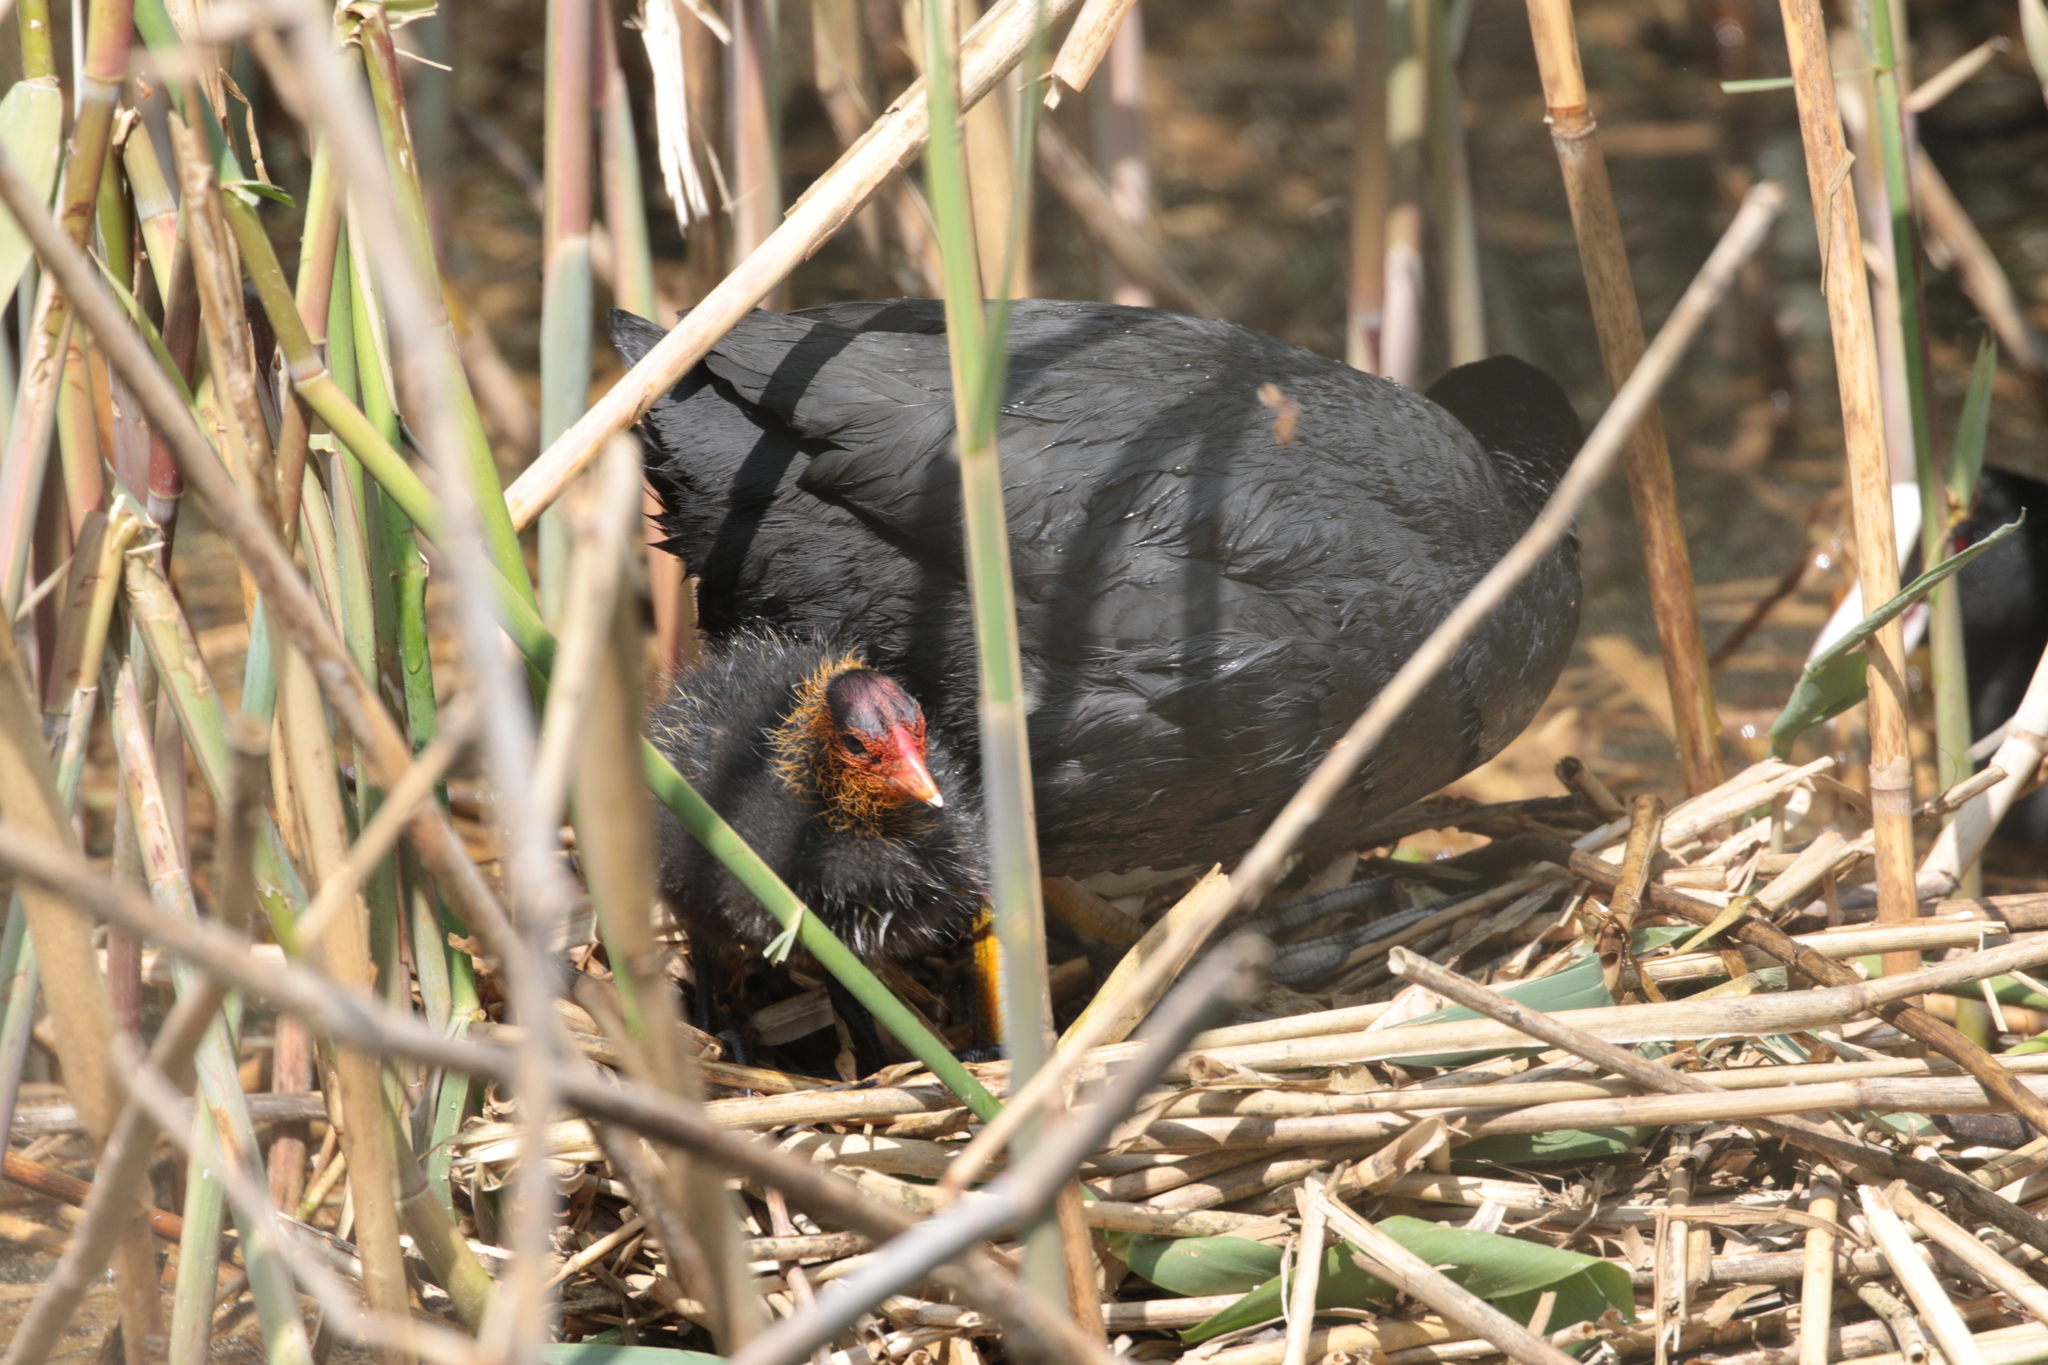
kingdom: Animalia
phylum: Chordata
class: Aves
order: Gruiformes
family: Rallidae
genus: Fulica
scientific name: Fulica atra
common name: Eurasian coot
